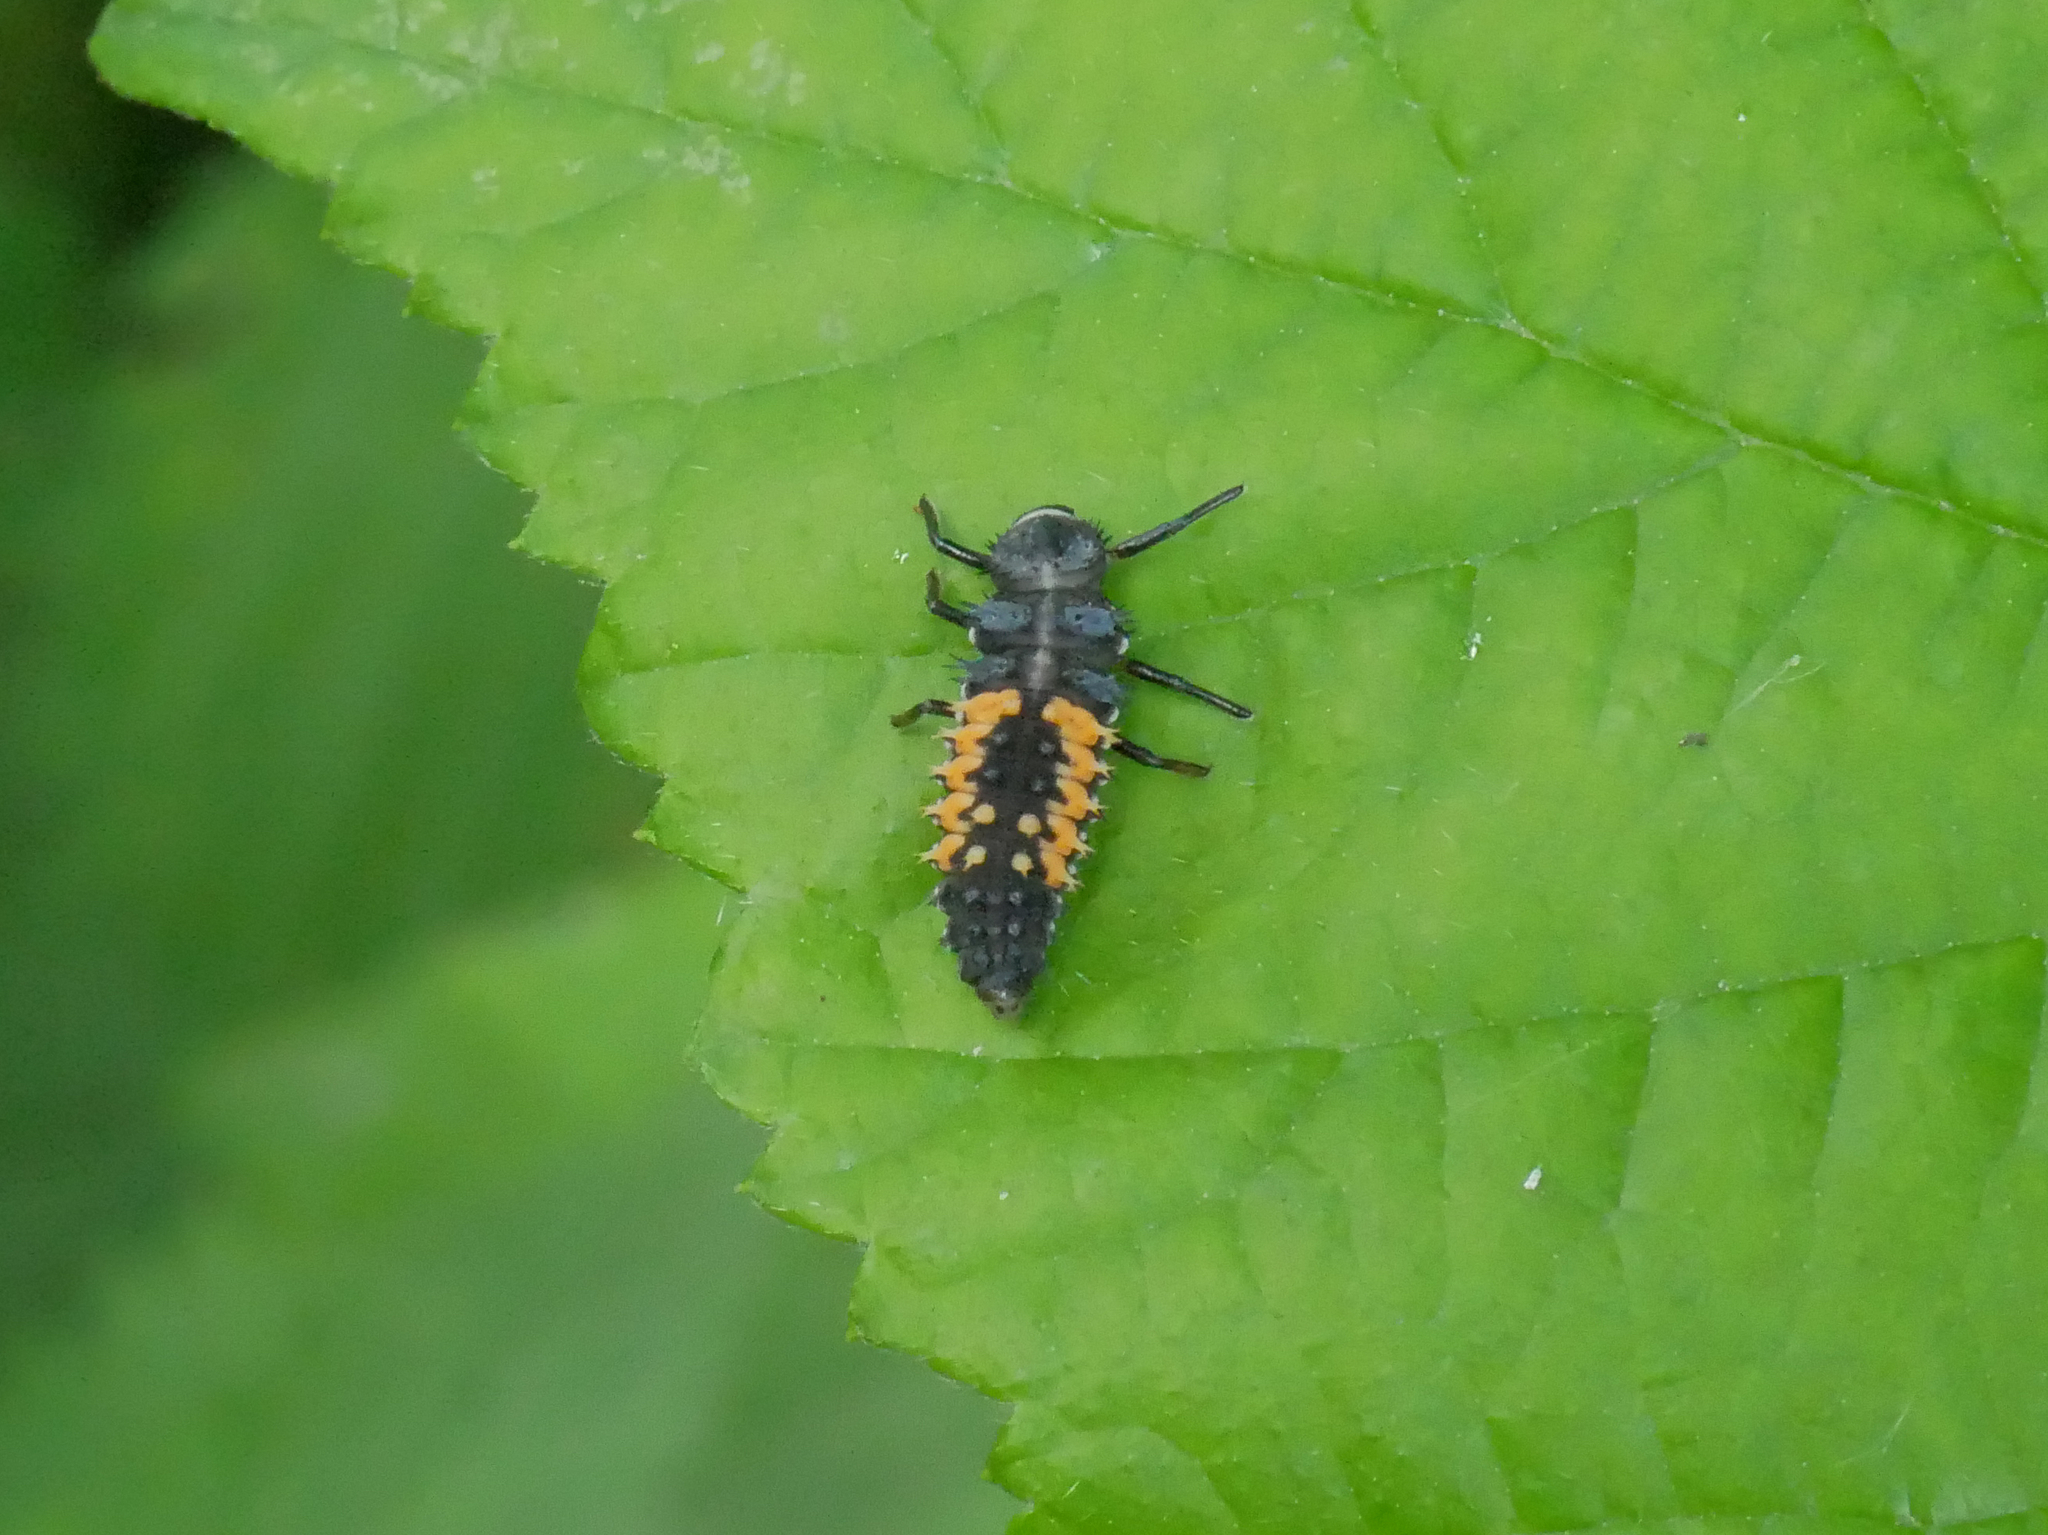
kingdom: Animalia
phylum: Arthropoda
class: Insecta
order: Coleoptera
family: Coccinellidae
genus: Harmonia
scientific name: Harmonia axyridis
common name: Harlequin ladybird
